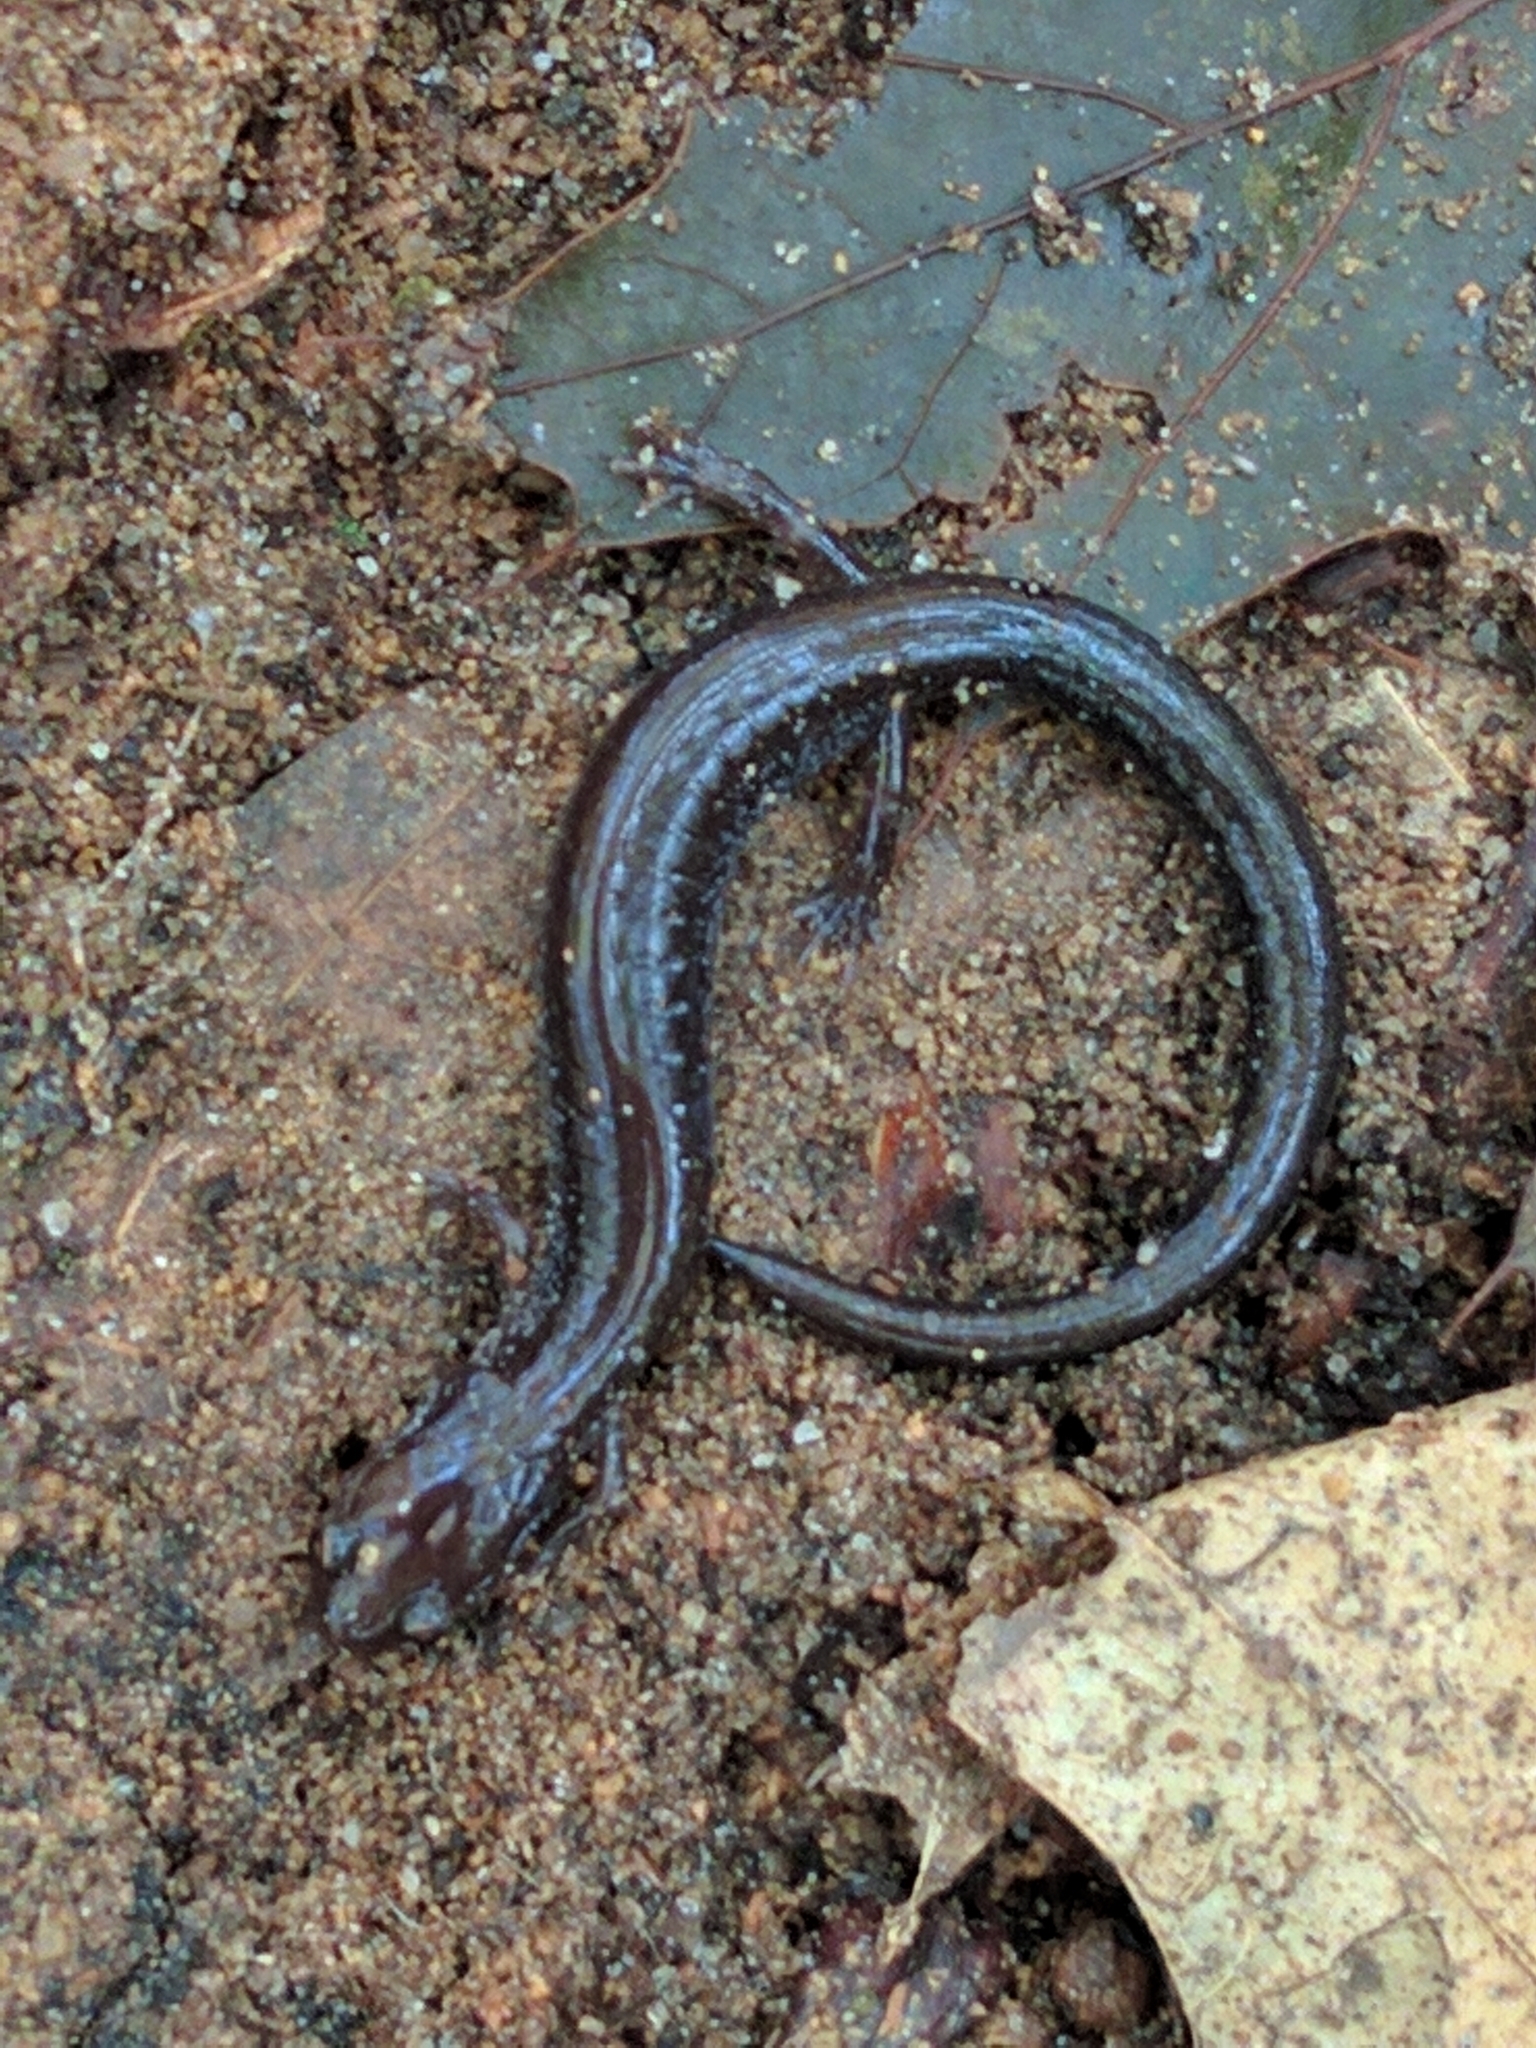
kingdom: Animalia
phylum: Chordata
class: Amphibia
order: Caudata
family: Plethodontidae
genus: Plethodon
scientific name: Plethodon cinereus
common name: Redback salamander
